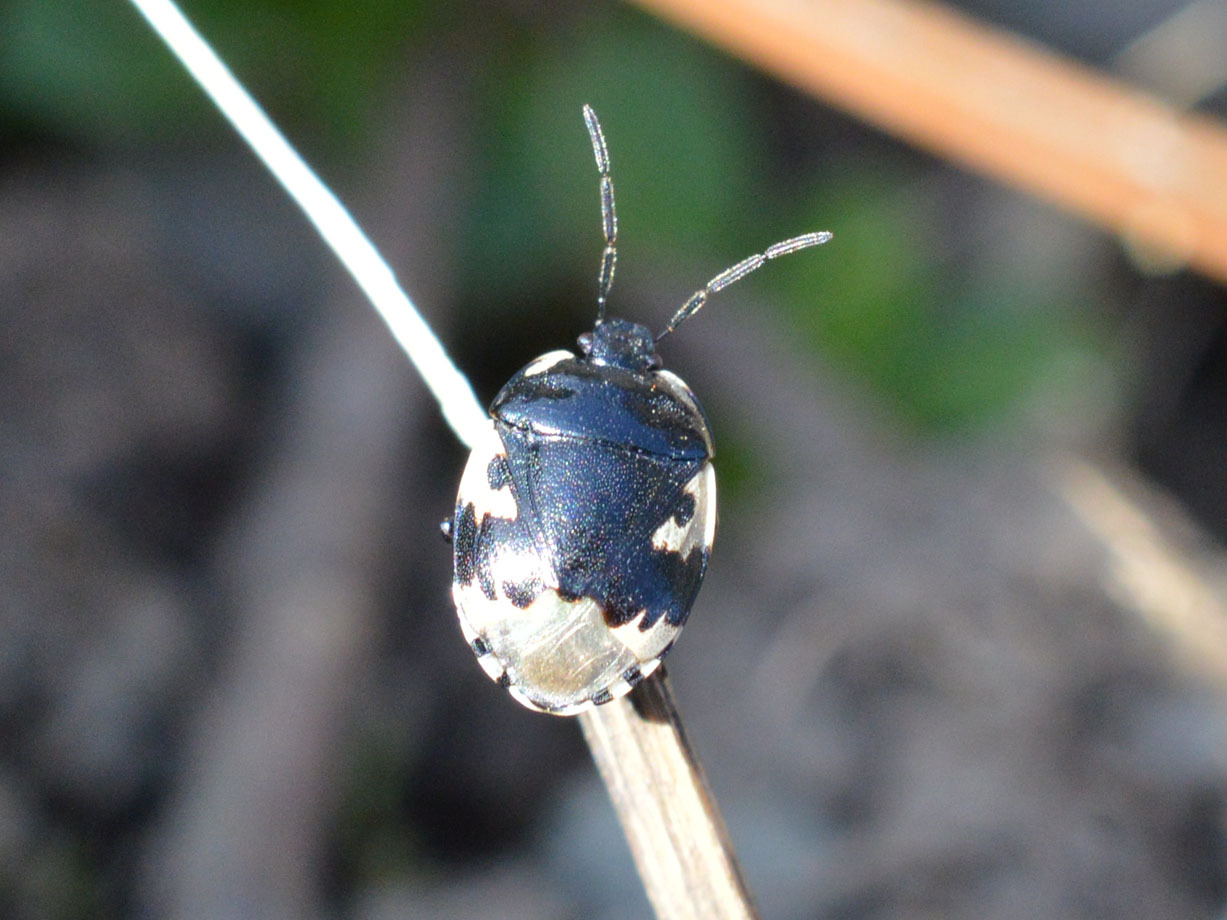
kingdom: Animalia
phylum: Arthropoda
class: Insecta
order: Hemiptera
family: Cydnidae
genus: Tritomegas
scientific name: Tritomegas bicolor
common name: Pied shieldbug
